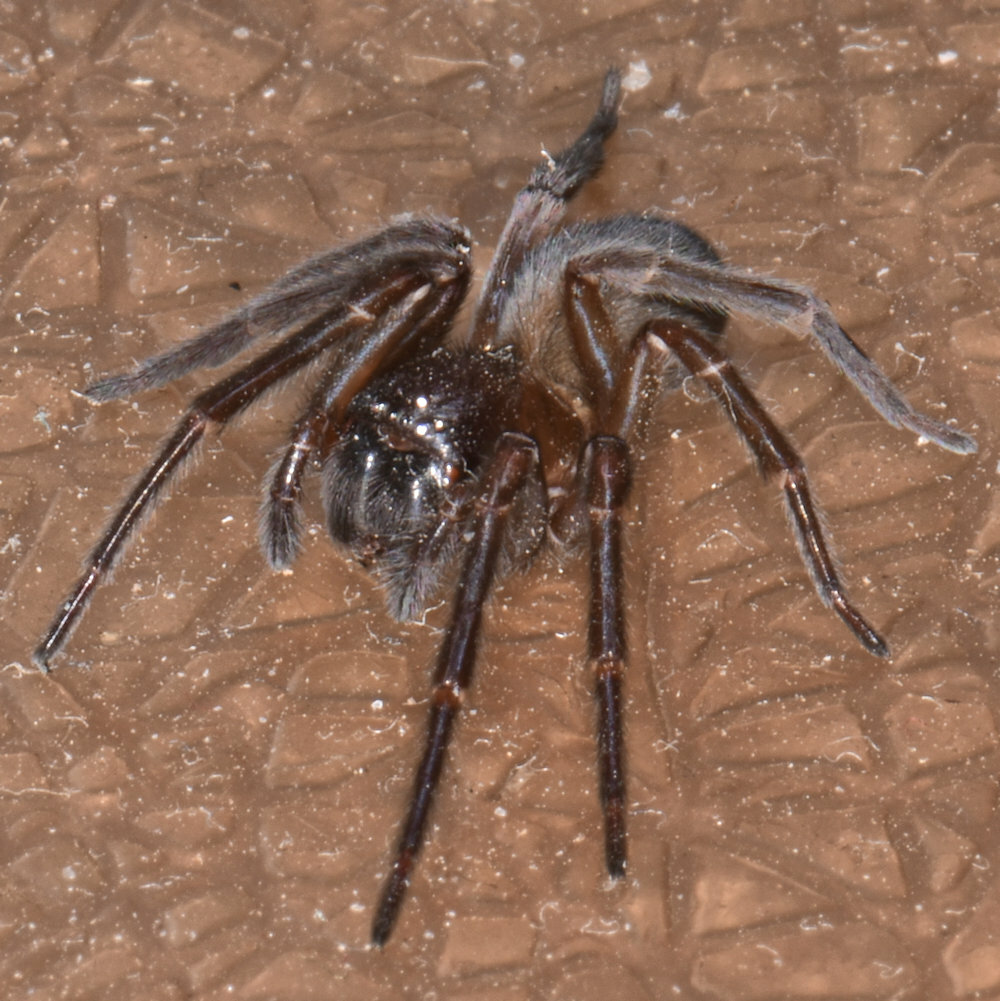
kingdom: Animalia
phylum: Arthropoda
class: Arachnida
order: Araneae
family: Amaurobiidae
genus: Amaurobius
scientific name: Amaurobius ferox
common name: Black laceweaver
